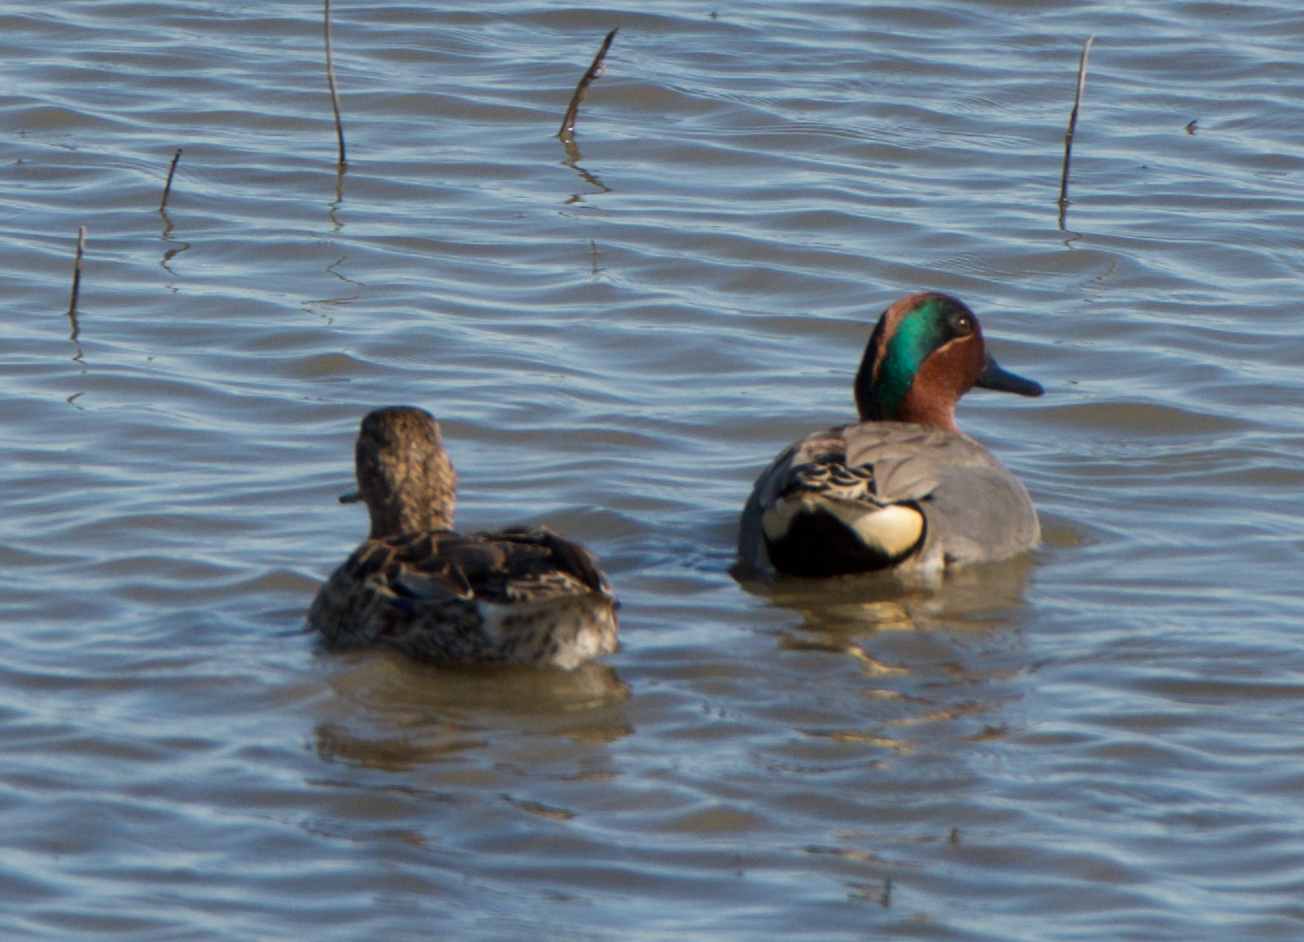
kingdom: Animalia
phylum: Chordata
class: Aves
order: Anseriformes
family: Anatidae
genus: Anas
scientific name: Anas crecca
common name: Eurasian teal
